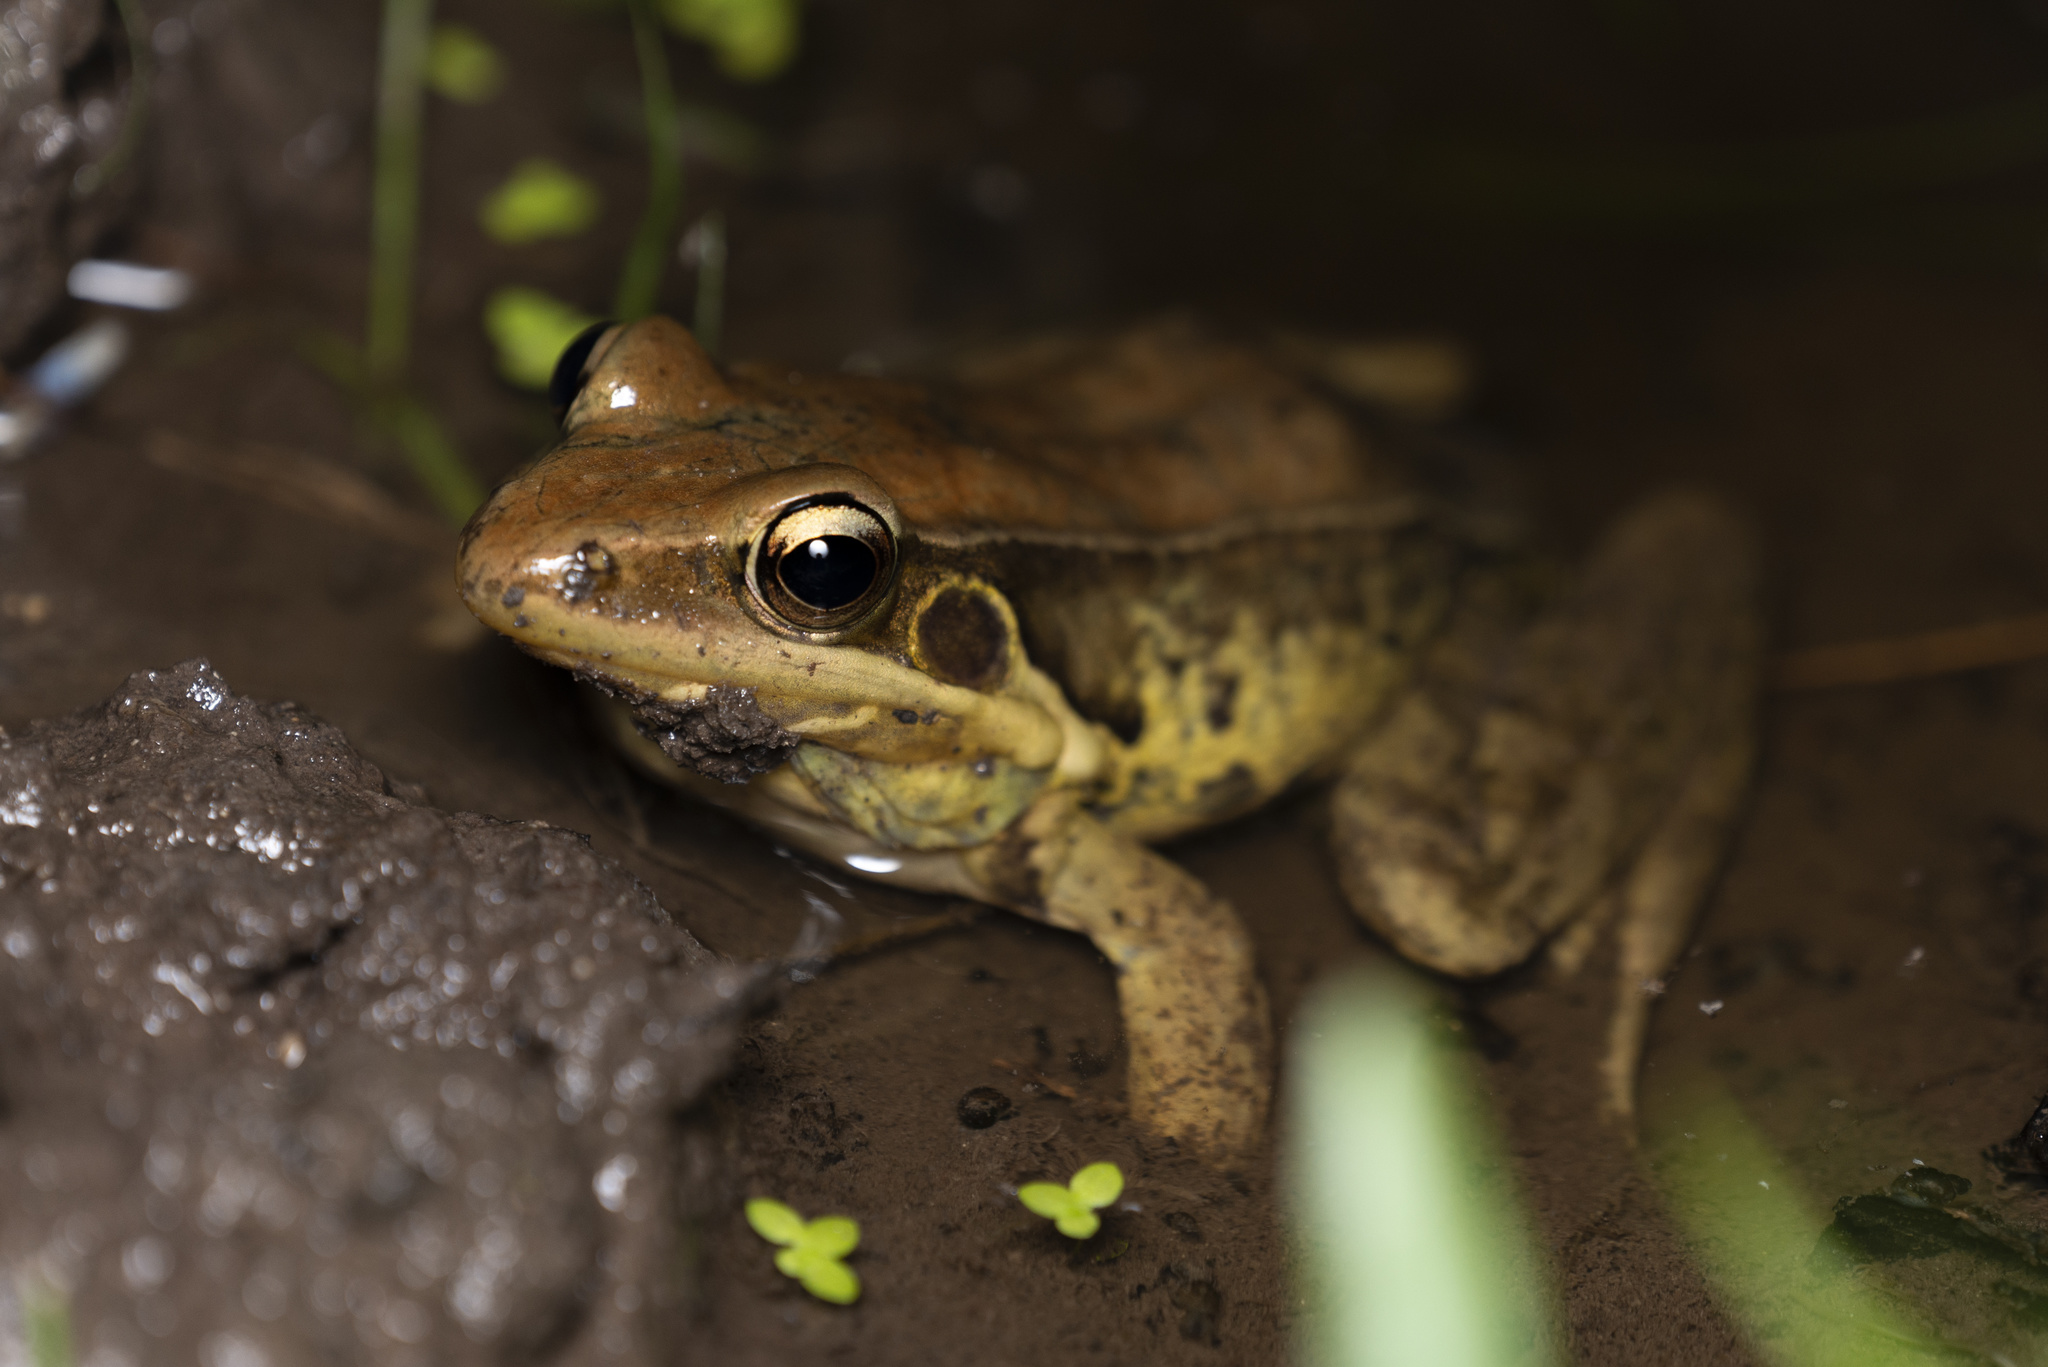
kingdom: Animalia
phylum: Chordata
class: Amphibia
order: Anura
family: Ranidae
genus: Sylvirana
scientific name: Sylvirana guentheri
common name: Guenther's amoy frog
